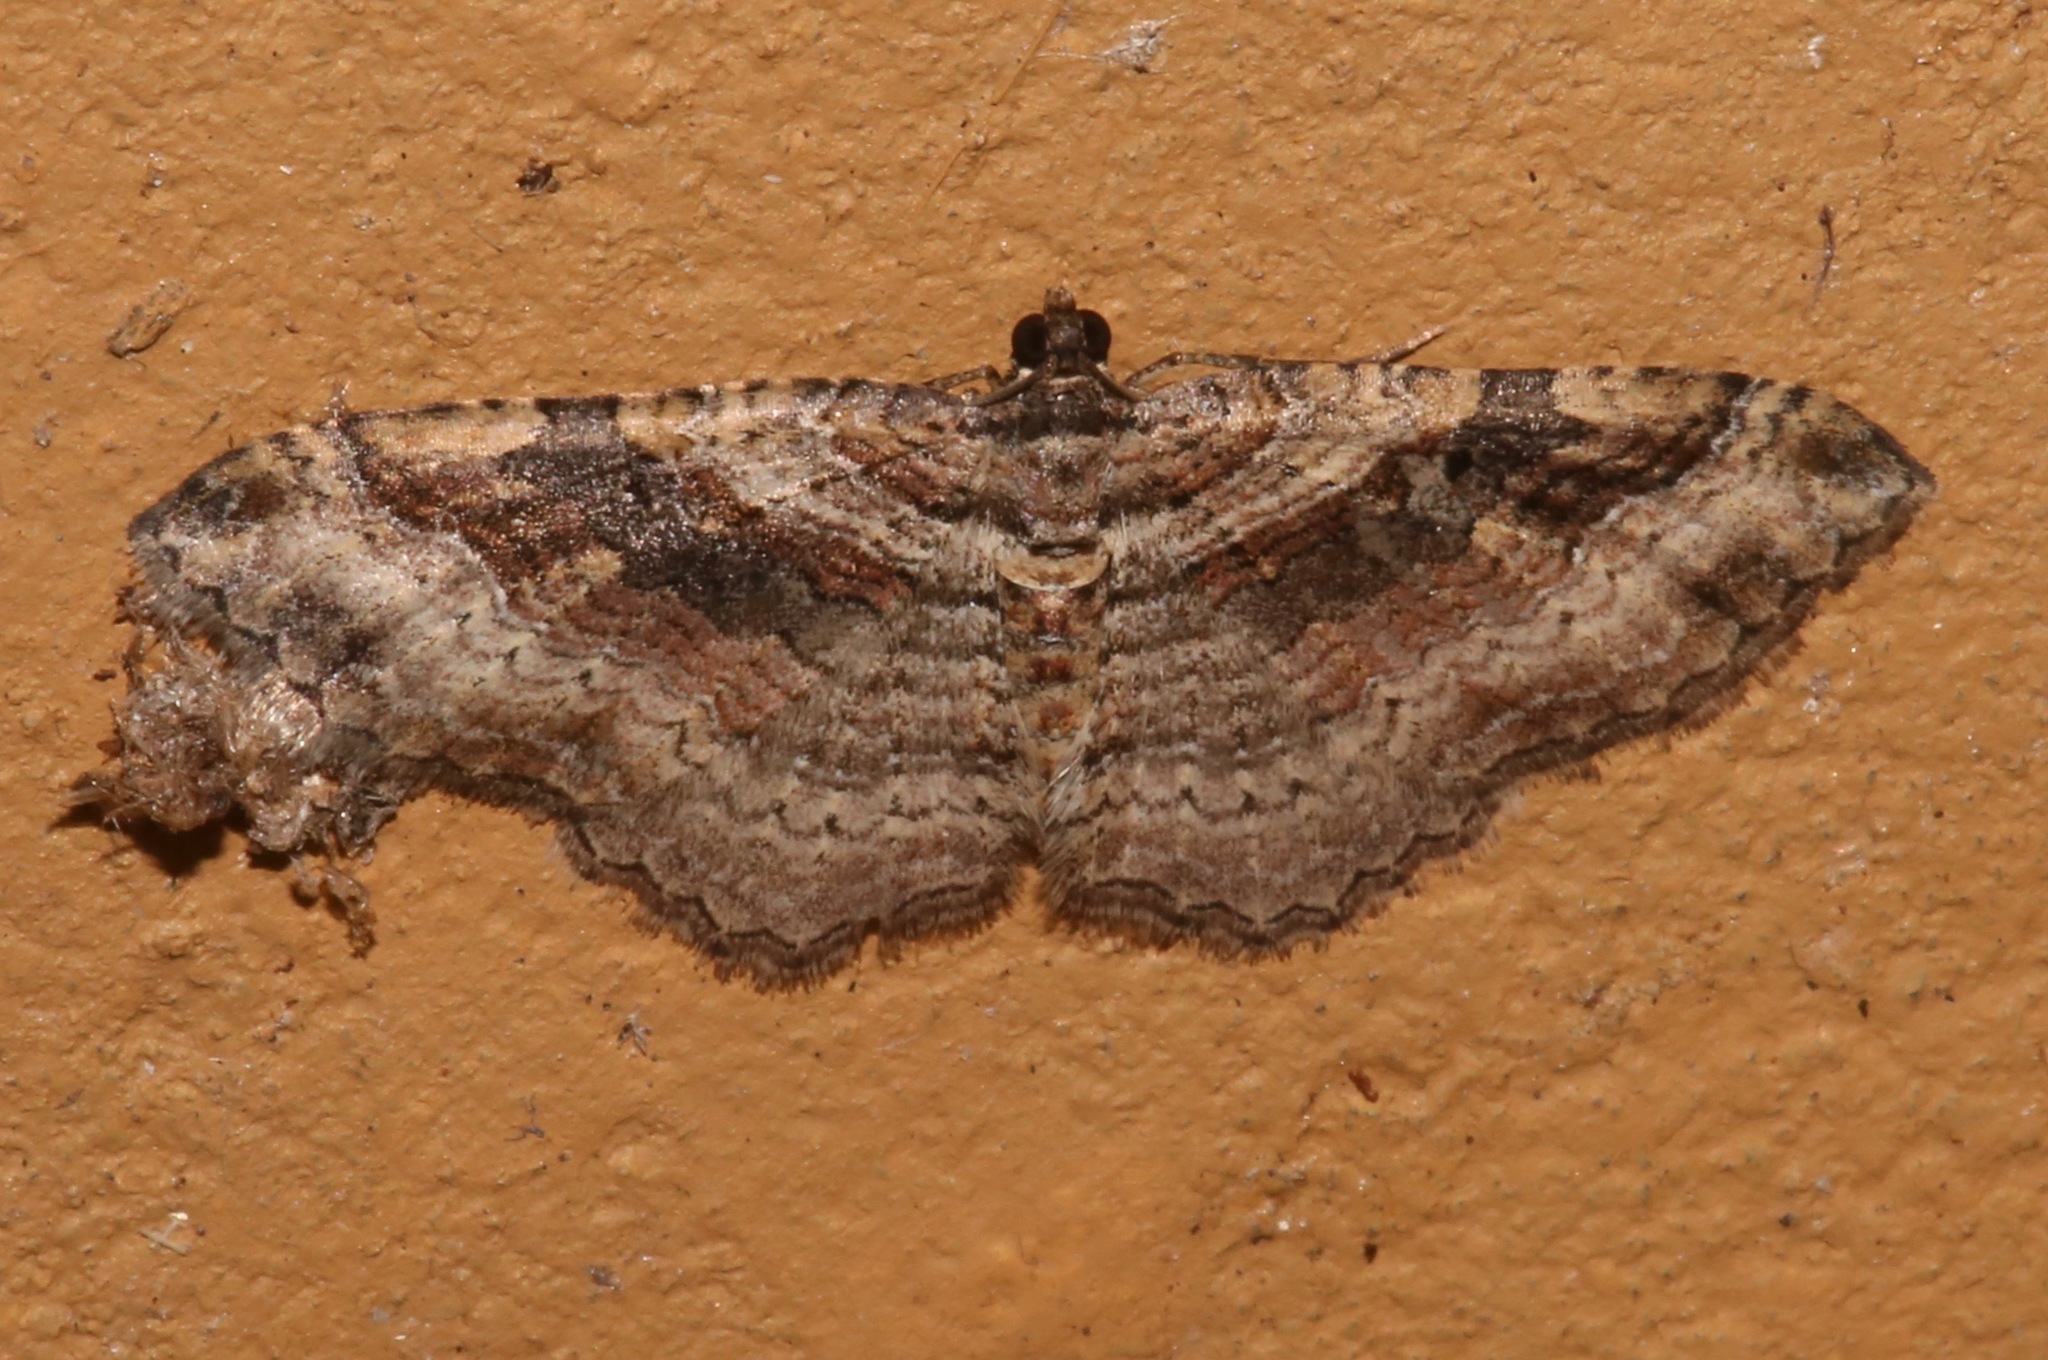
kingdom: Animalia
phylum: Arthropoda
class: Insecta
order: Lepidoptera
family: Geometridae
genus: Costaconvexa
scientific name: Costaconvexa centrostrigaria
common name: Bent-line carpet
